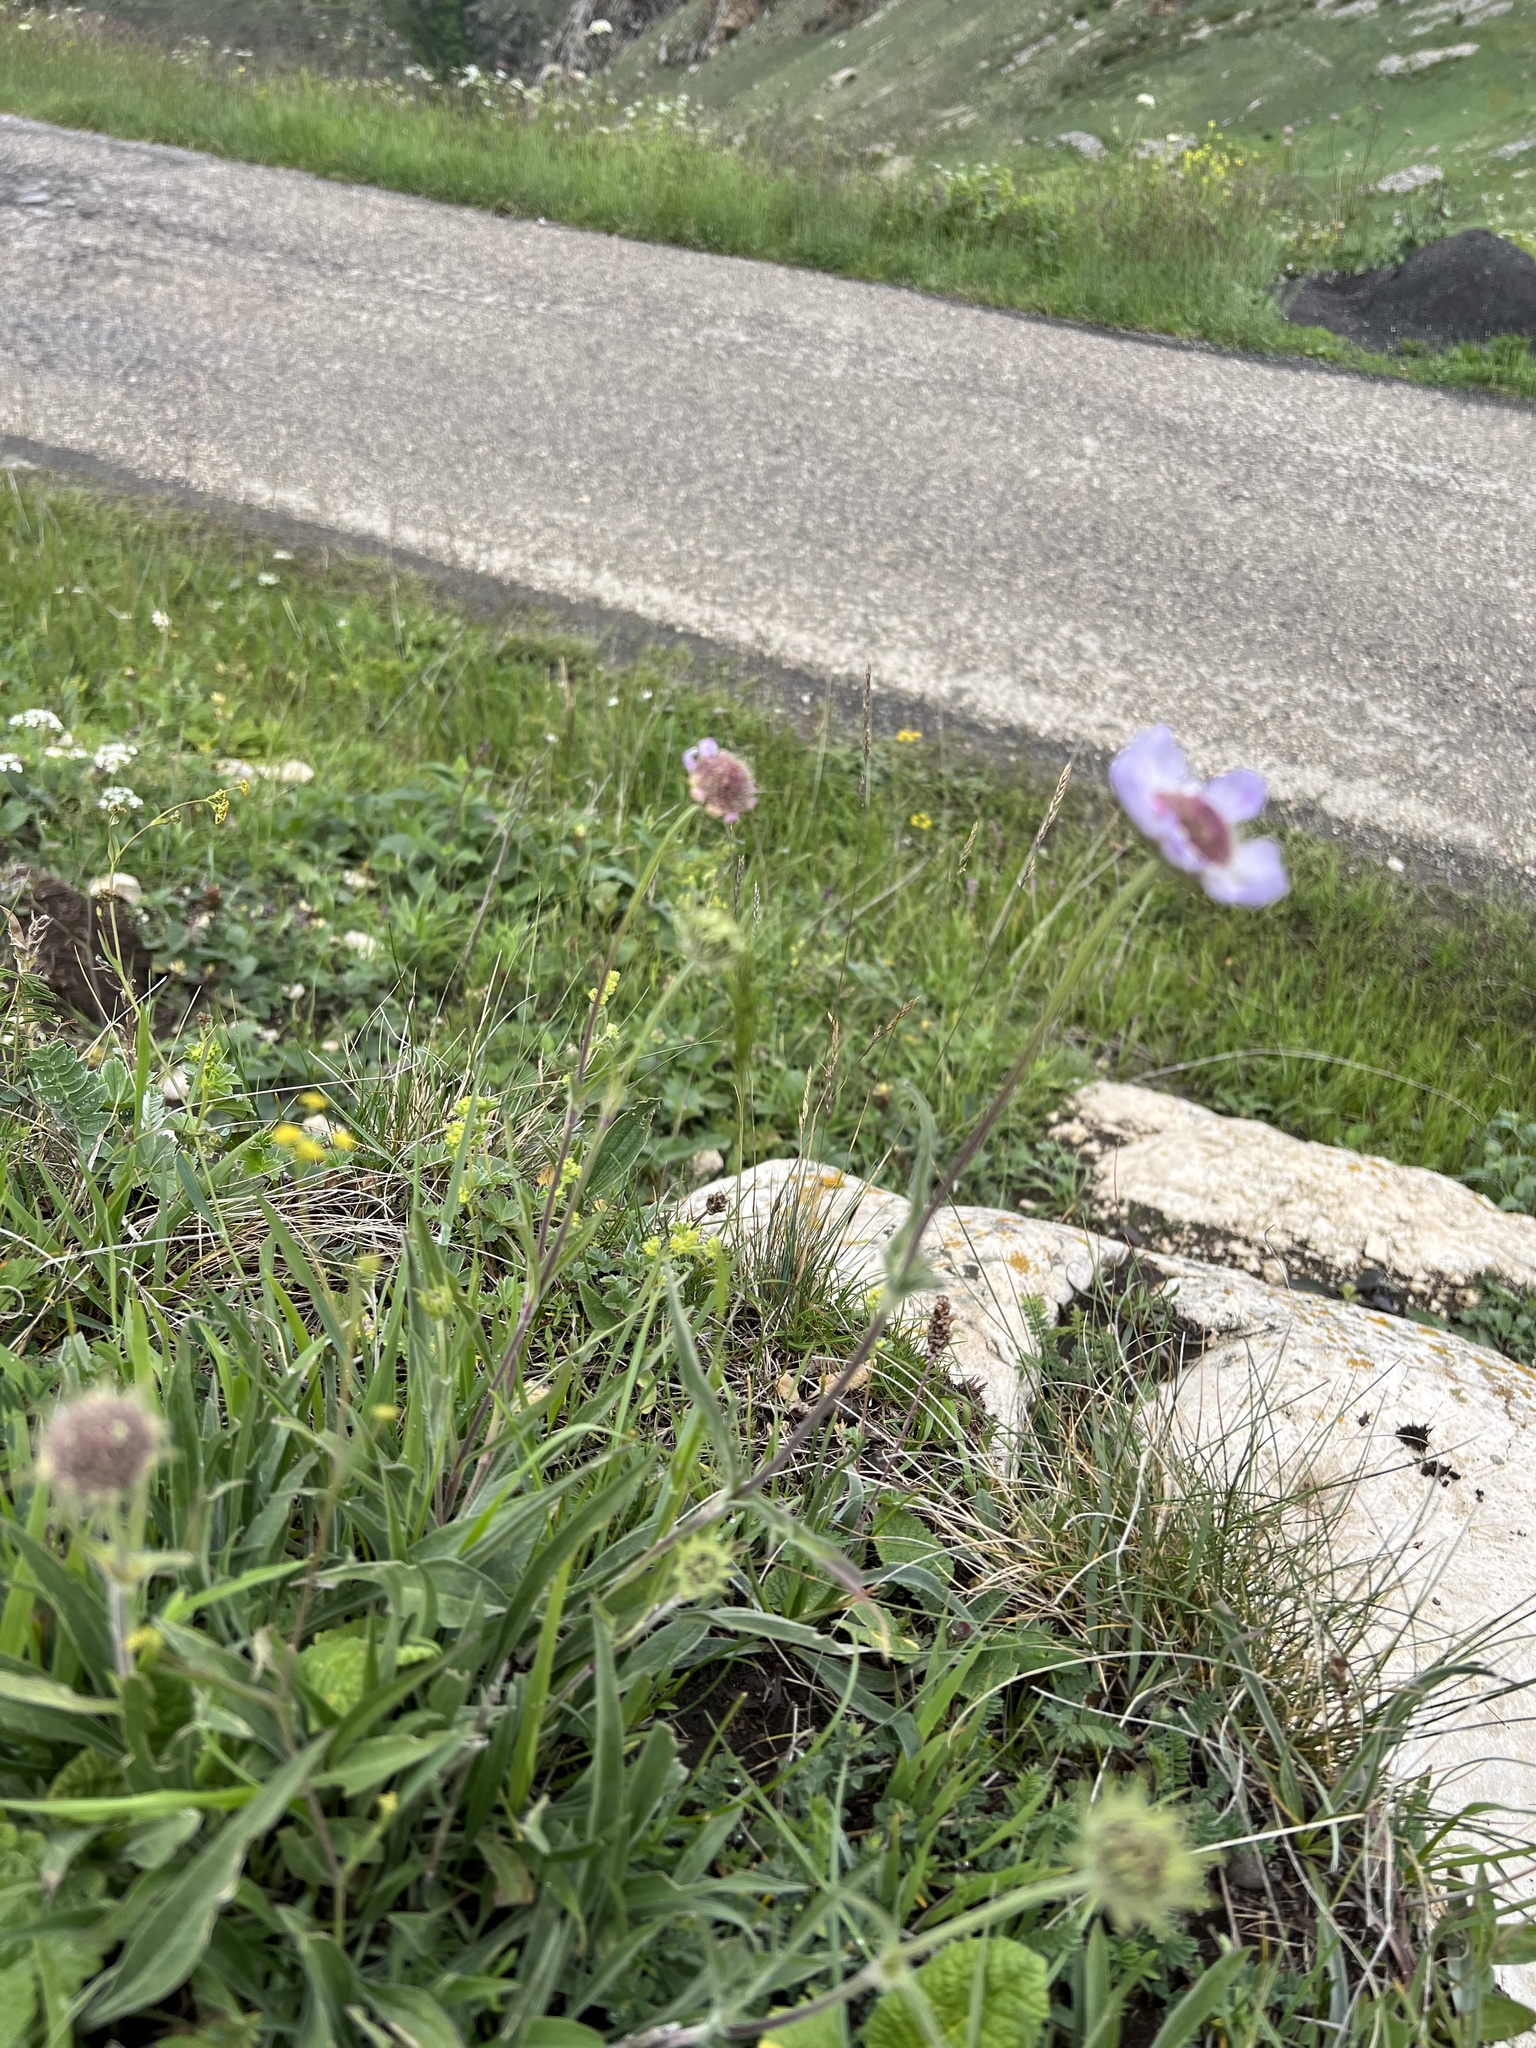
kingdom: Plantae
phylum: Tracheophyta
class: Magnoliopsida
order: Dipsacales
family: Caprifoliaceae
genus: Lomelosia
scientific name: Lomelosia caucasica
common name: Pincushion-flower
